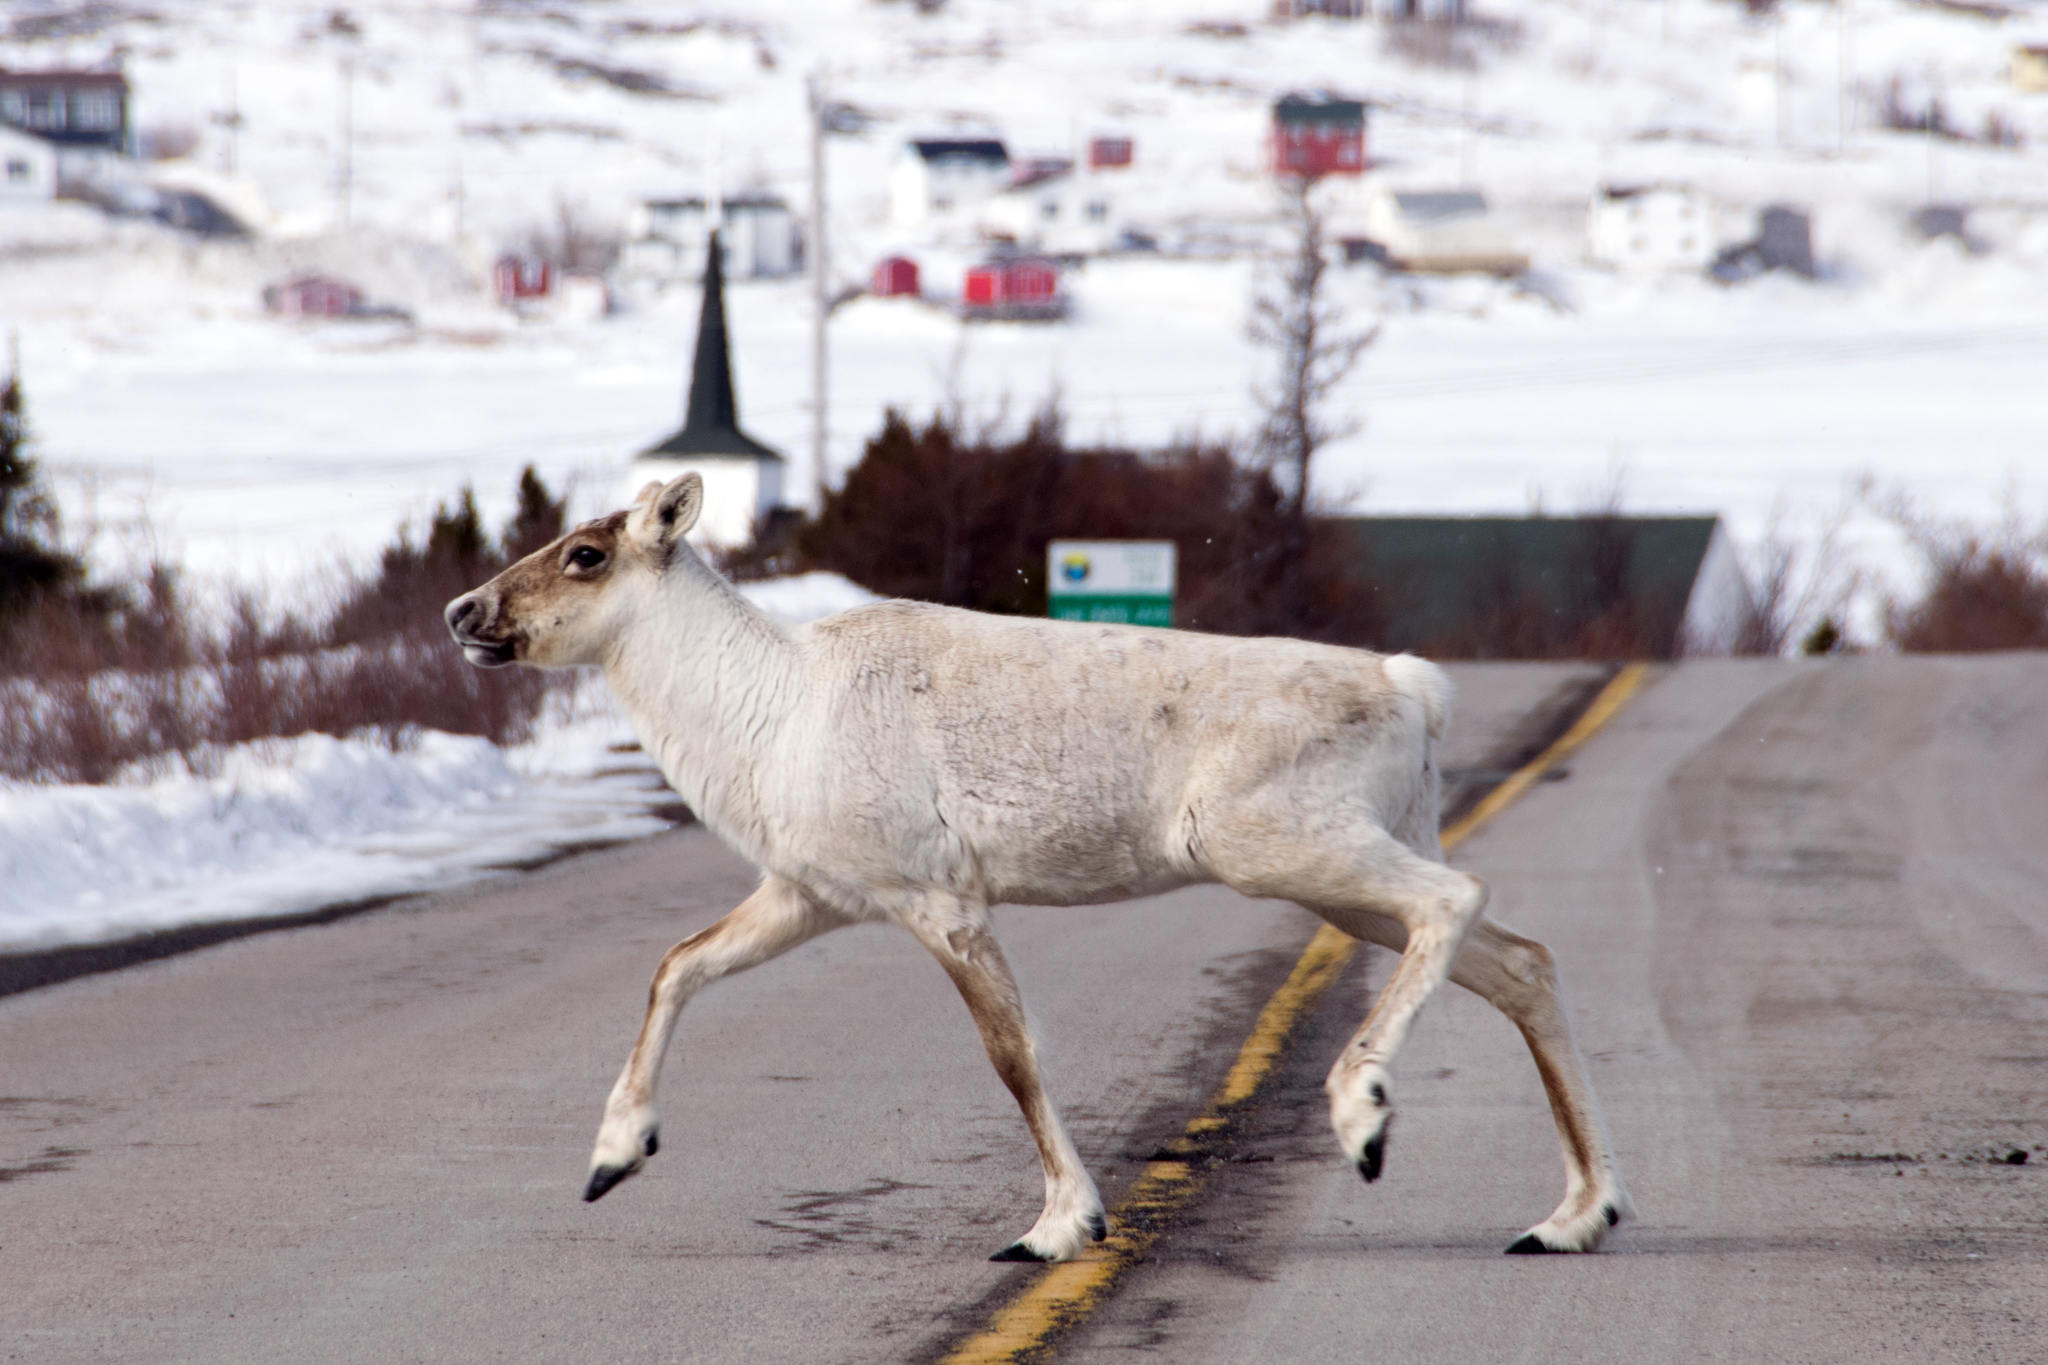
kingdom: Animalia
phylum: Chordata
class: Mammalia
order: Artiodactyla
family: Cervidae
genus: Rangifer
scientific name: Rangifer tarandus
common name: Reindeer
